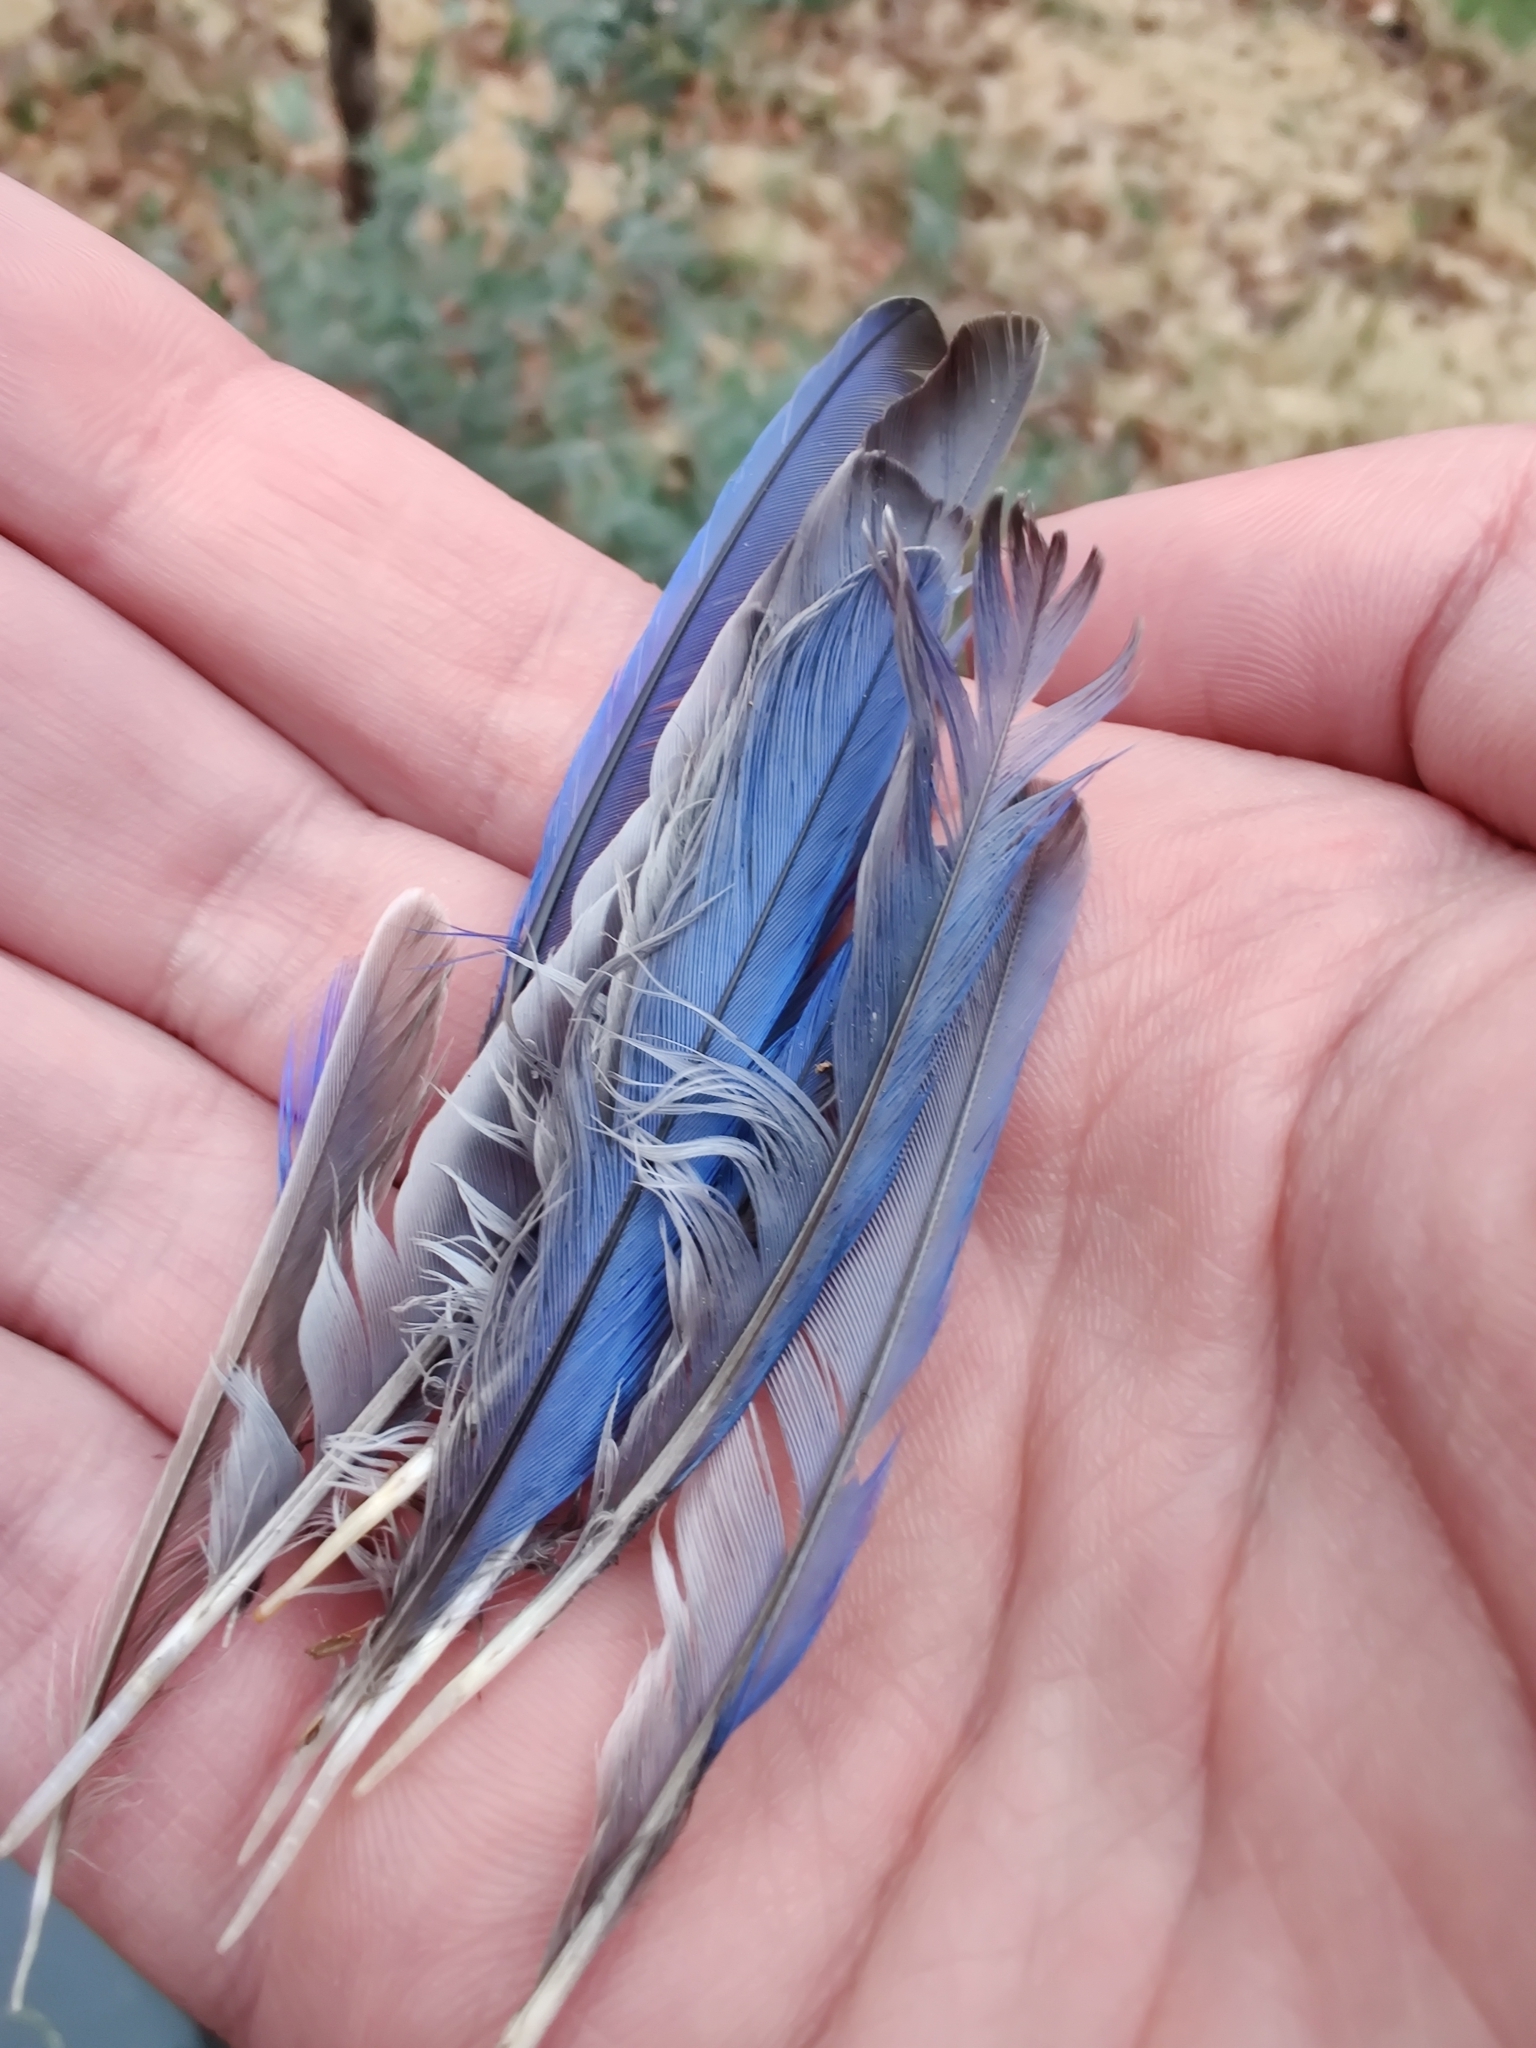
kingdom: Animalia
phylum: Chordata
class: Aves
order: Passeriformes
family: Turdidae
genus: Sialia
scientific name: Sialia sialis
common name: Eastern bluebird
